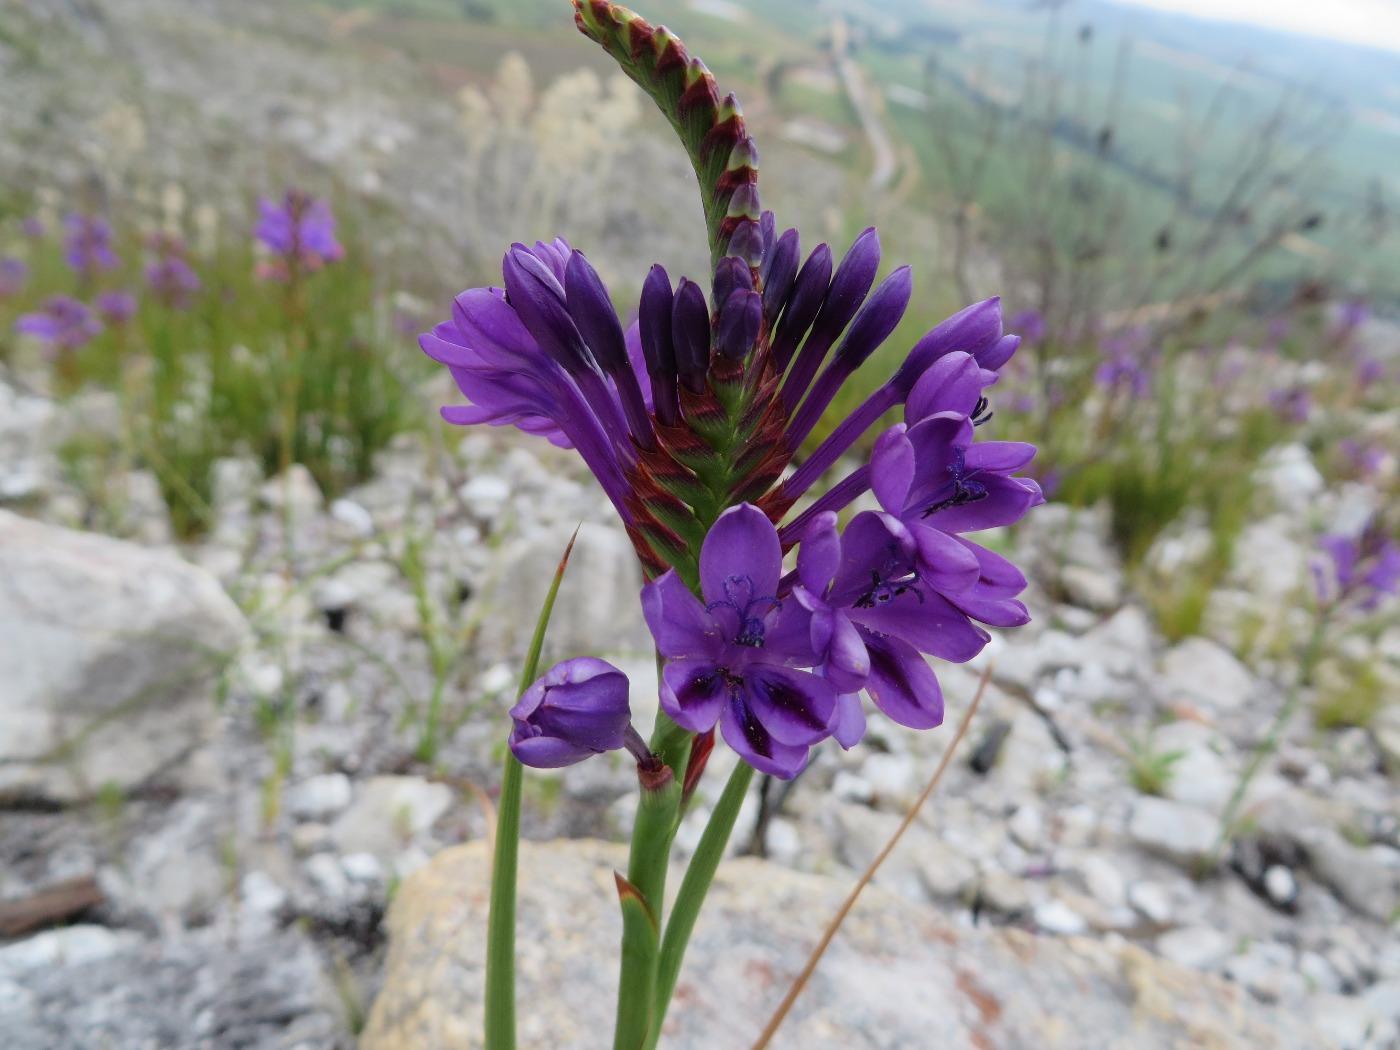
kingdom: Plantae
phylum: Tracheophyta
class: Liliopsida
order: Asparagales
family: Iridaceae
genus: Thereianthus
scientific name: Thereianthus spicatus
